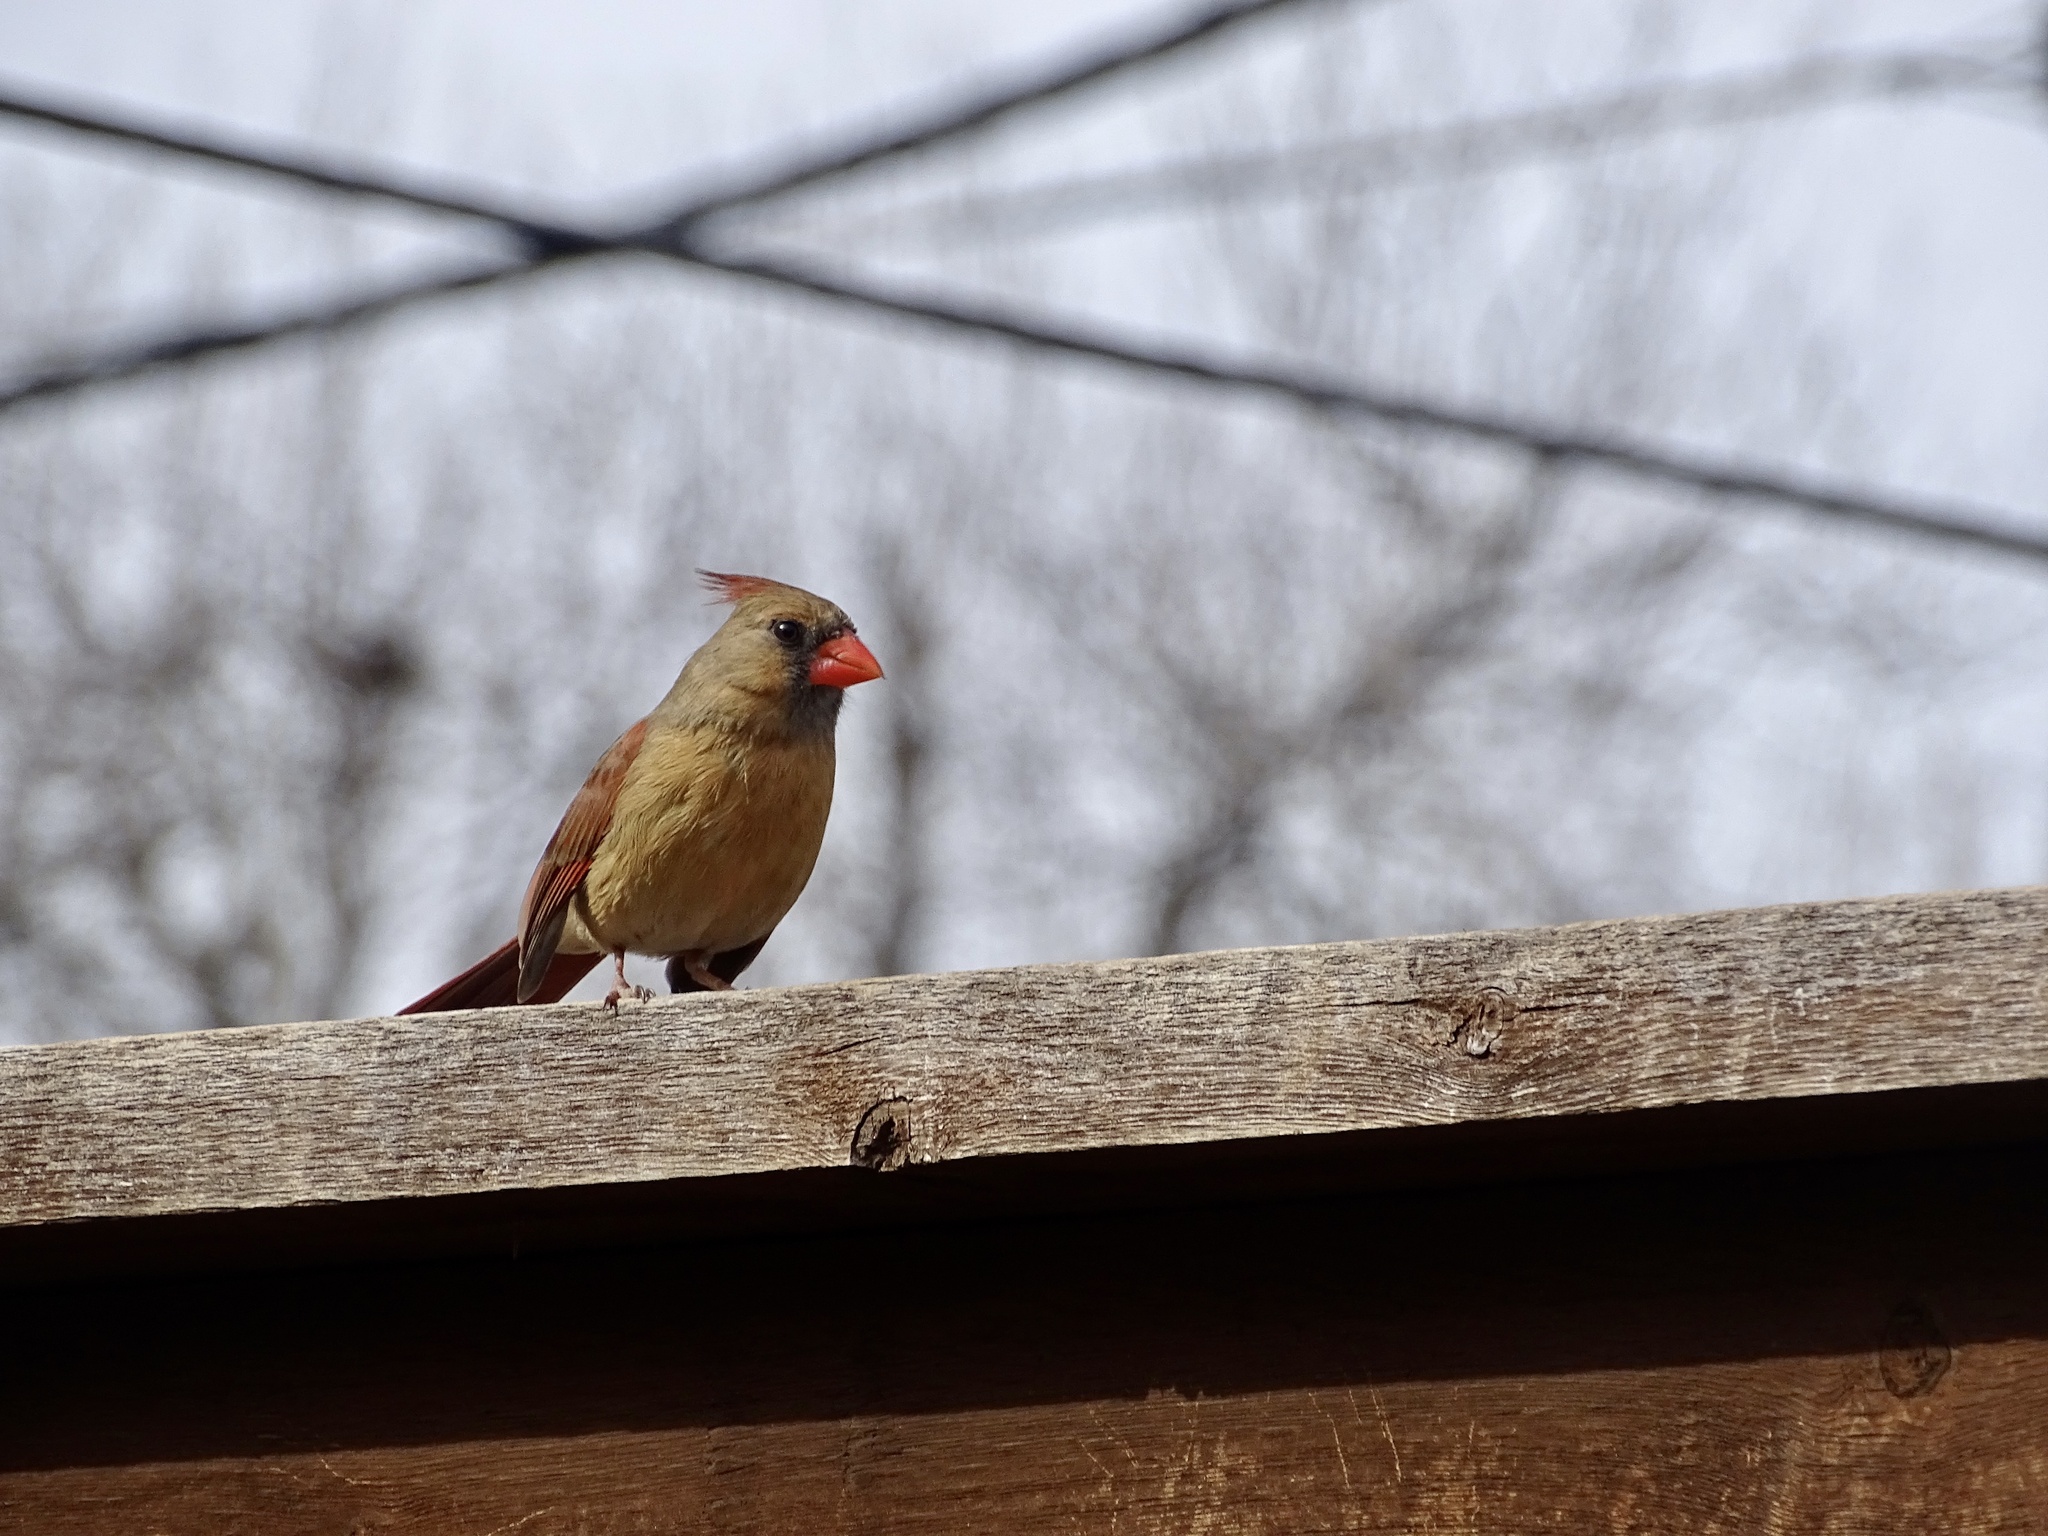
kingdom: Animalia
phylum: Chordata
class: Aves
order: Passeriformes
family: Cardinalidae
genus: Cardinalis
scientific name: Cardinalis cardinalis
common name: Northern cardinal
